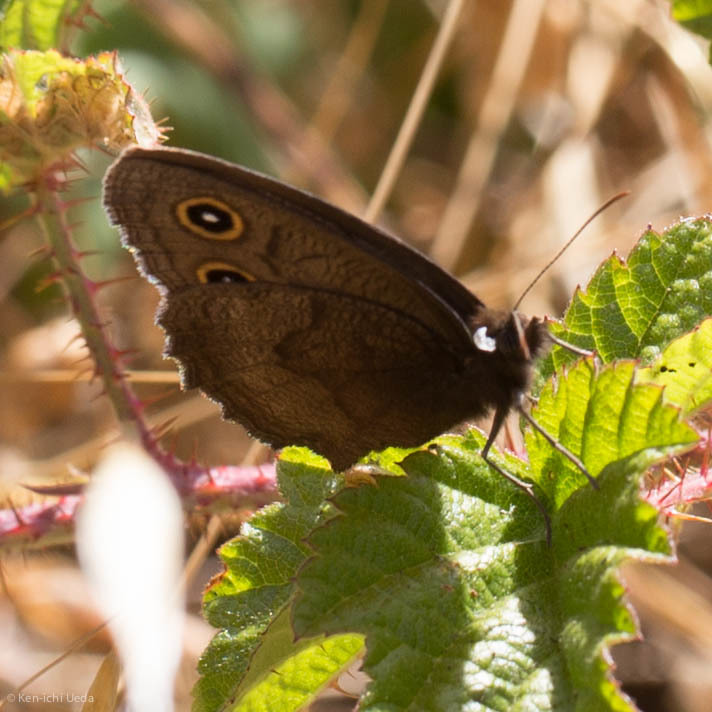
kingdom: Animalia
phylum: Arthropoda
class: Insecta
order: Lepidoptera
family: Nymphalidae
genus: Cercyonis
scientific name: Cercyonis pegala
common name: Common wood-nymph
